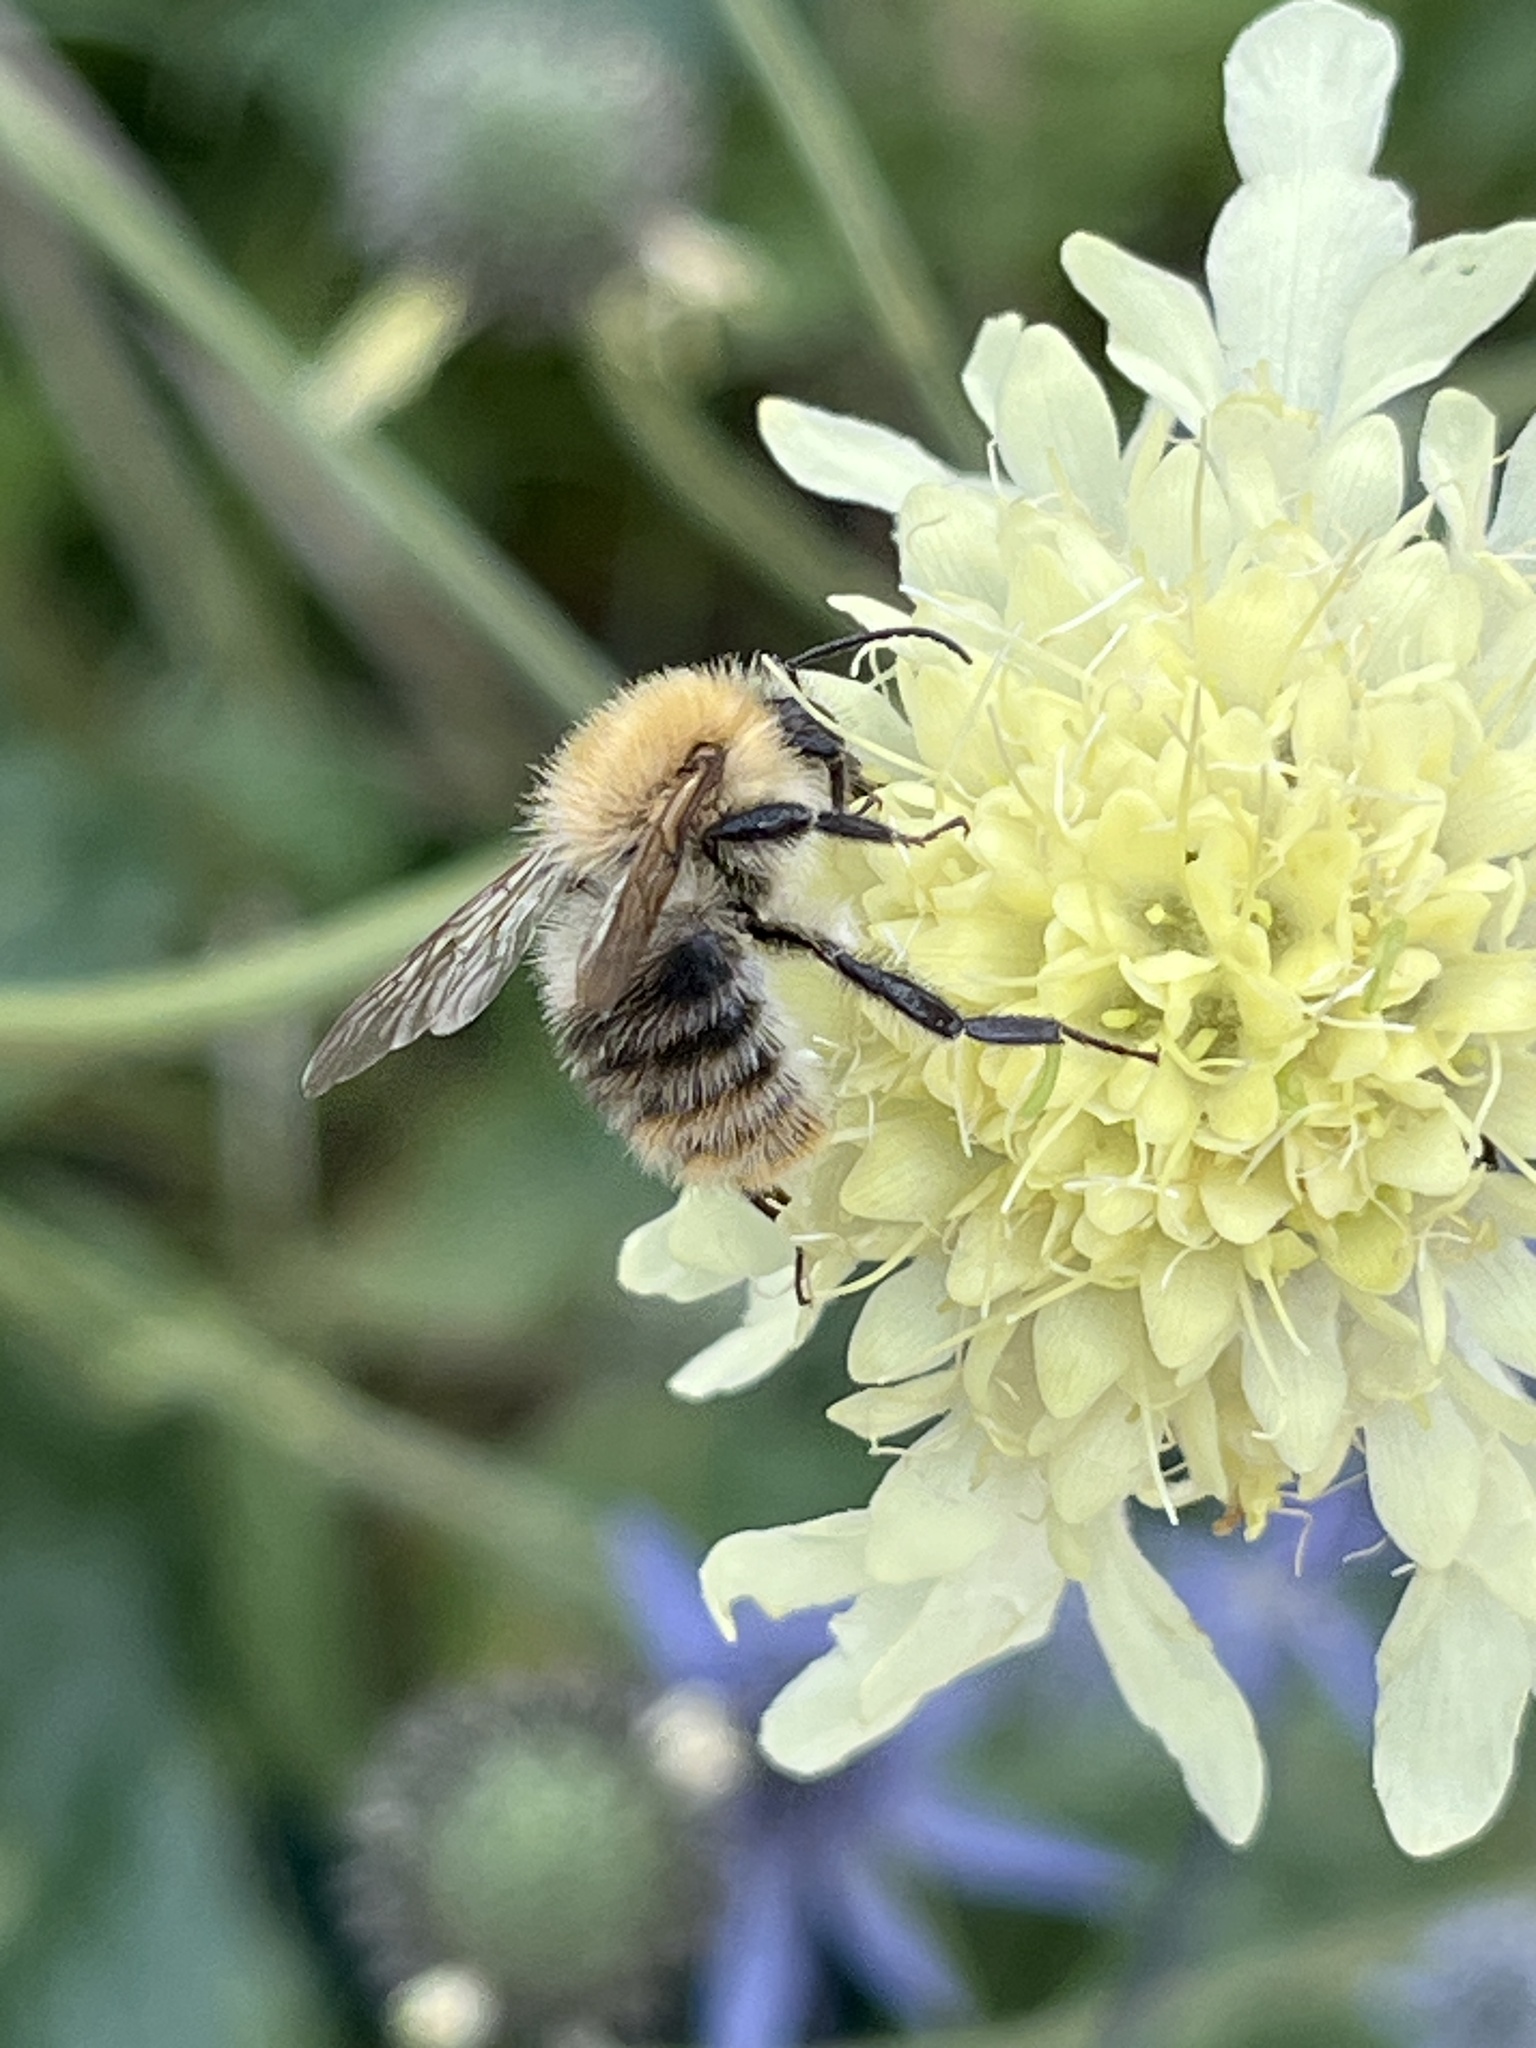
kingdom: Animalia
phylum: Arthropoda
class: Insecta
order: Hymenoptera
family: Apidae
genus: Bombus
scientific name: Bombus pascuorum
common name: Common carder bee
